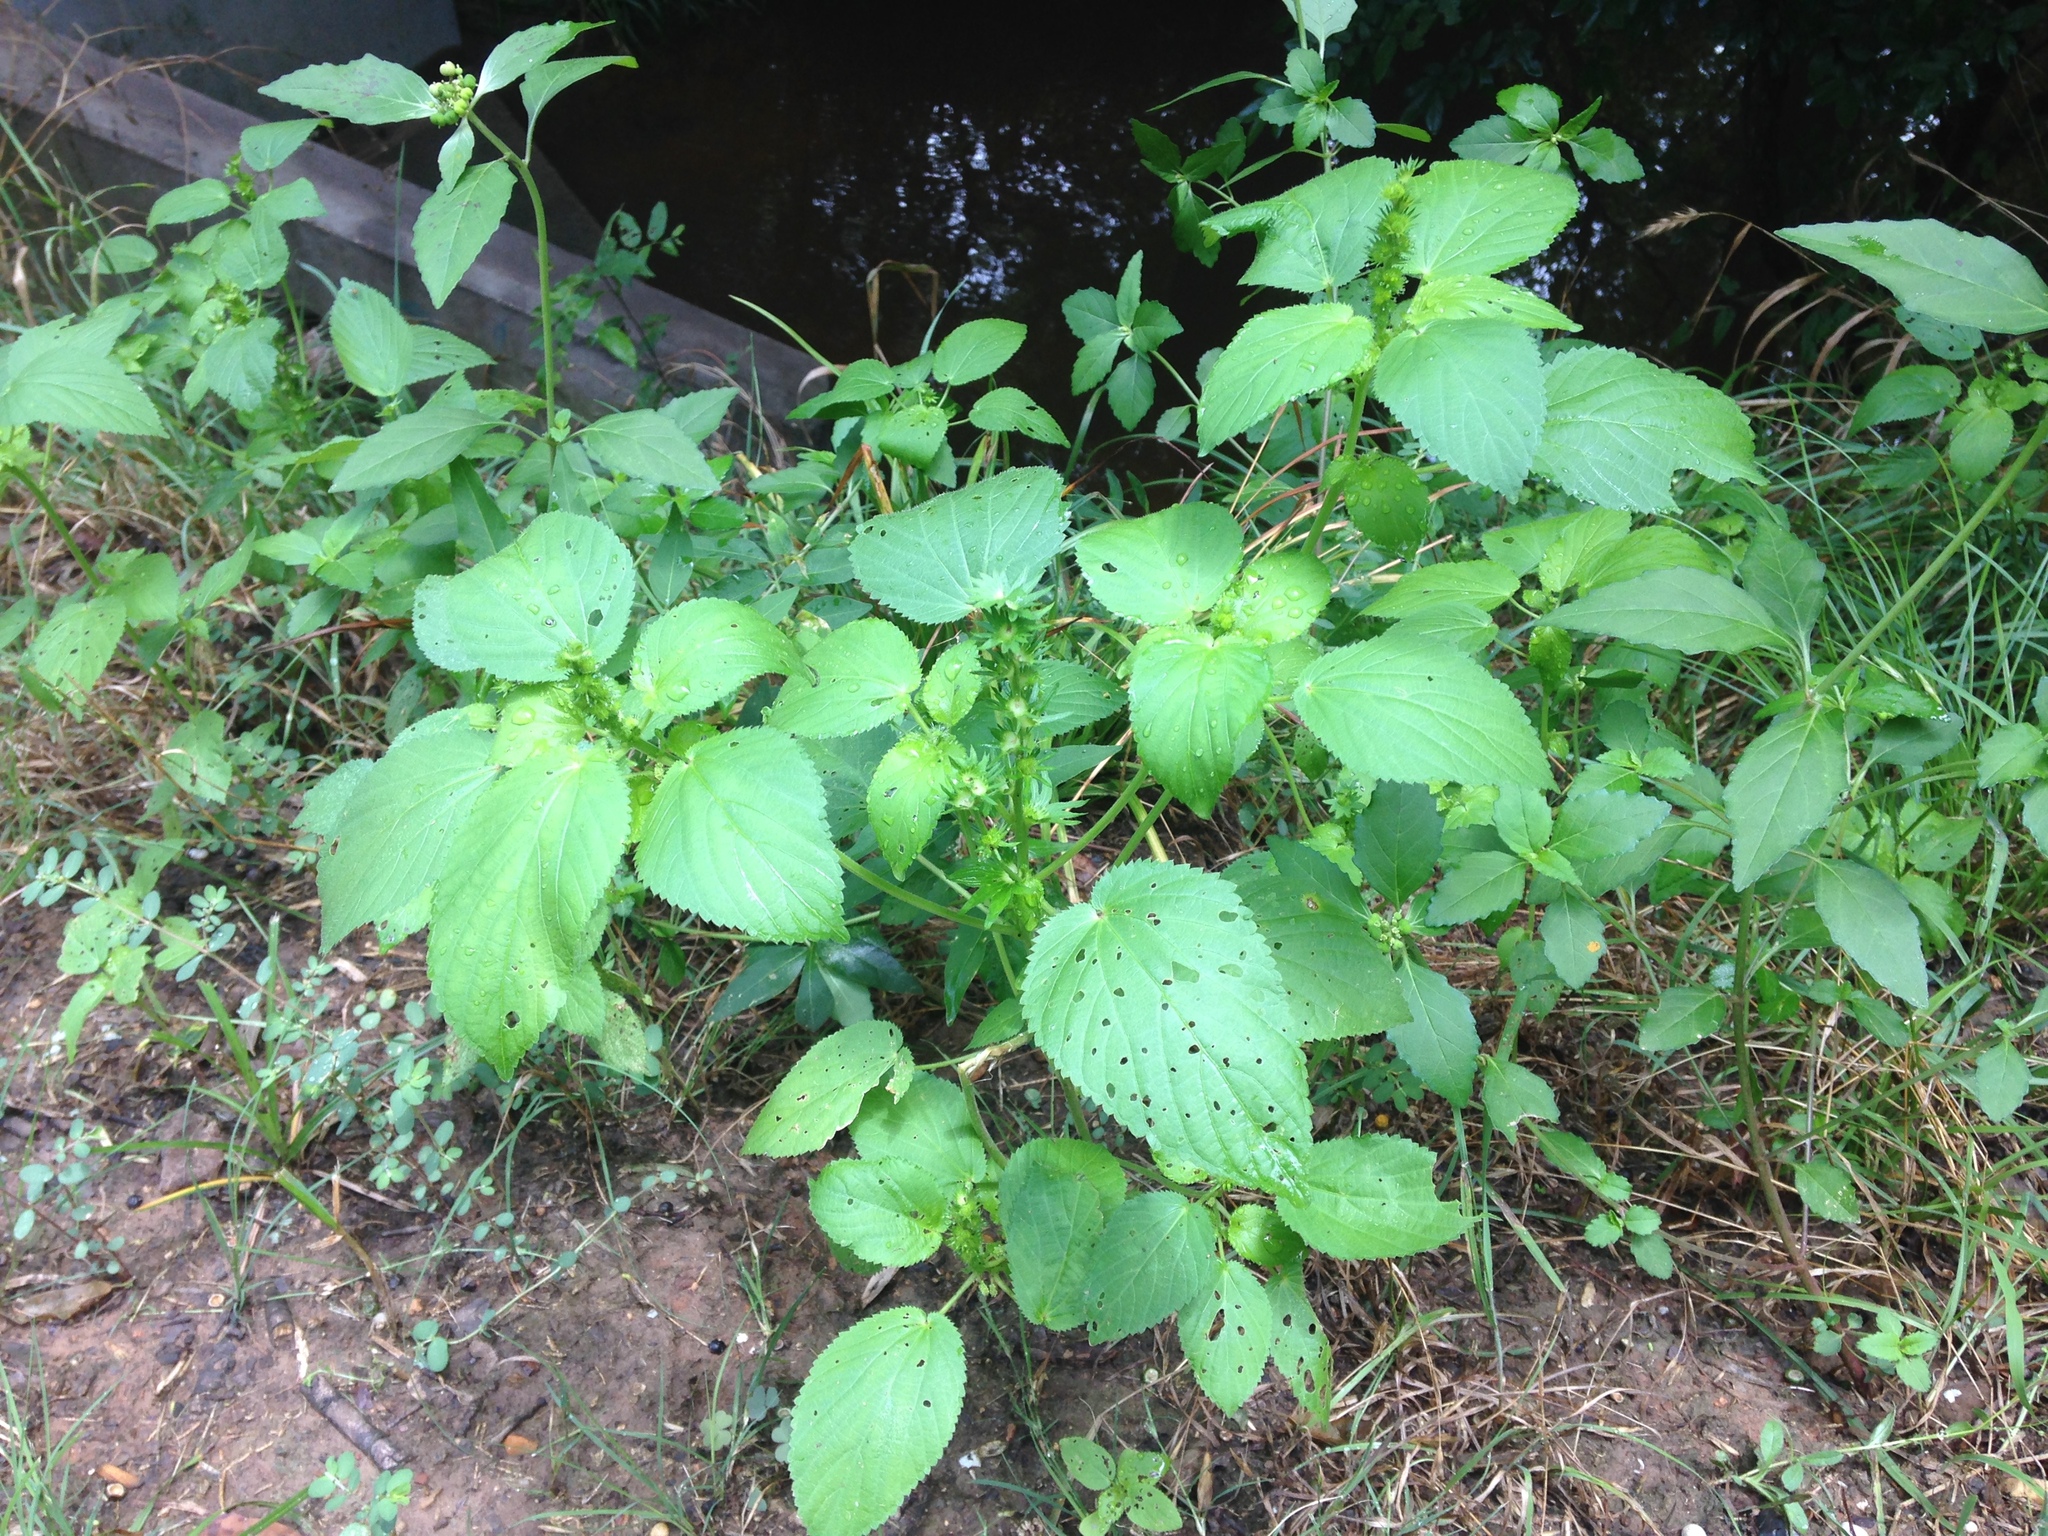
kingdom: Plantae
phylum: Tracheophyta
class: Magnoliopsida
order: Malpighiales
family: Euphorbiaceae
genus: Acalypha
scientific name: Acalypha ostryifolia
